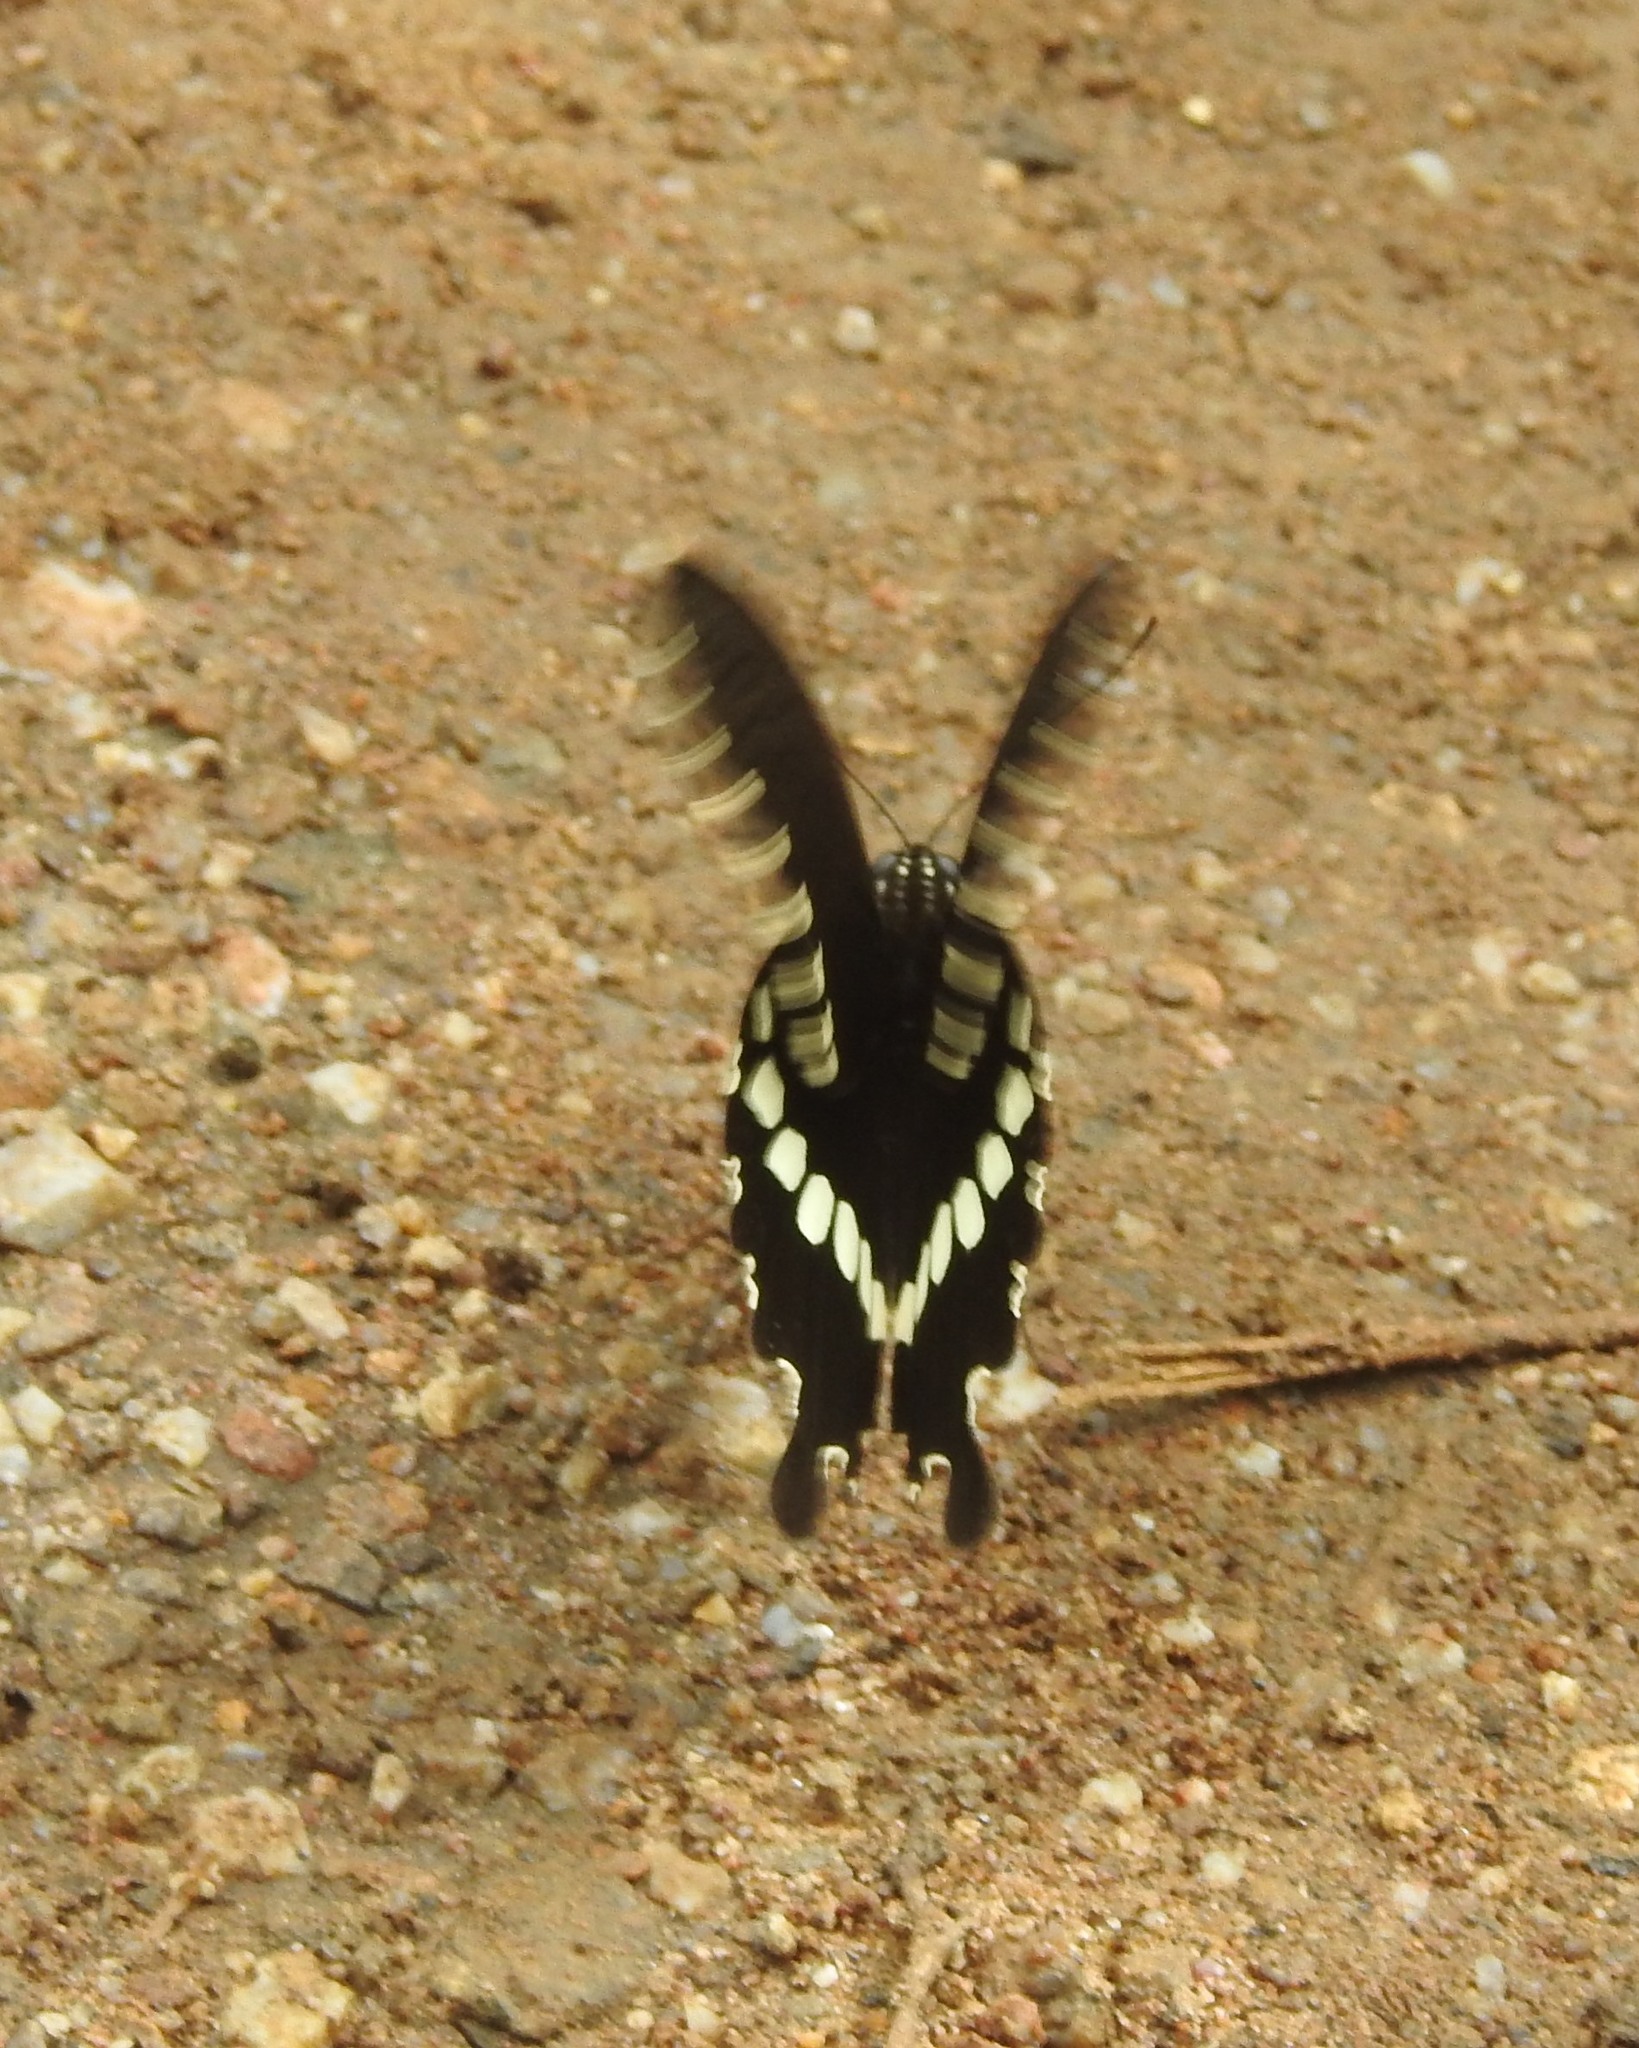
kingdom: Animalia
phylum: Arthropoda
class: Insecta
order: Lepidoptera
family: Papilionidae
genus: Papilio
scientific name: Papilio polytes
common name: Common mormon
